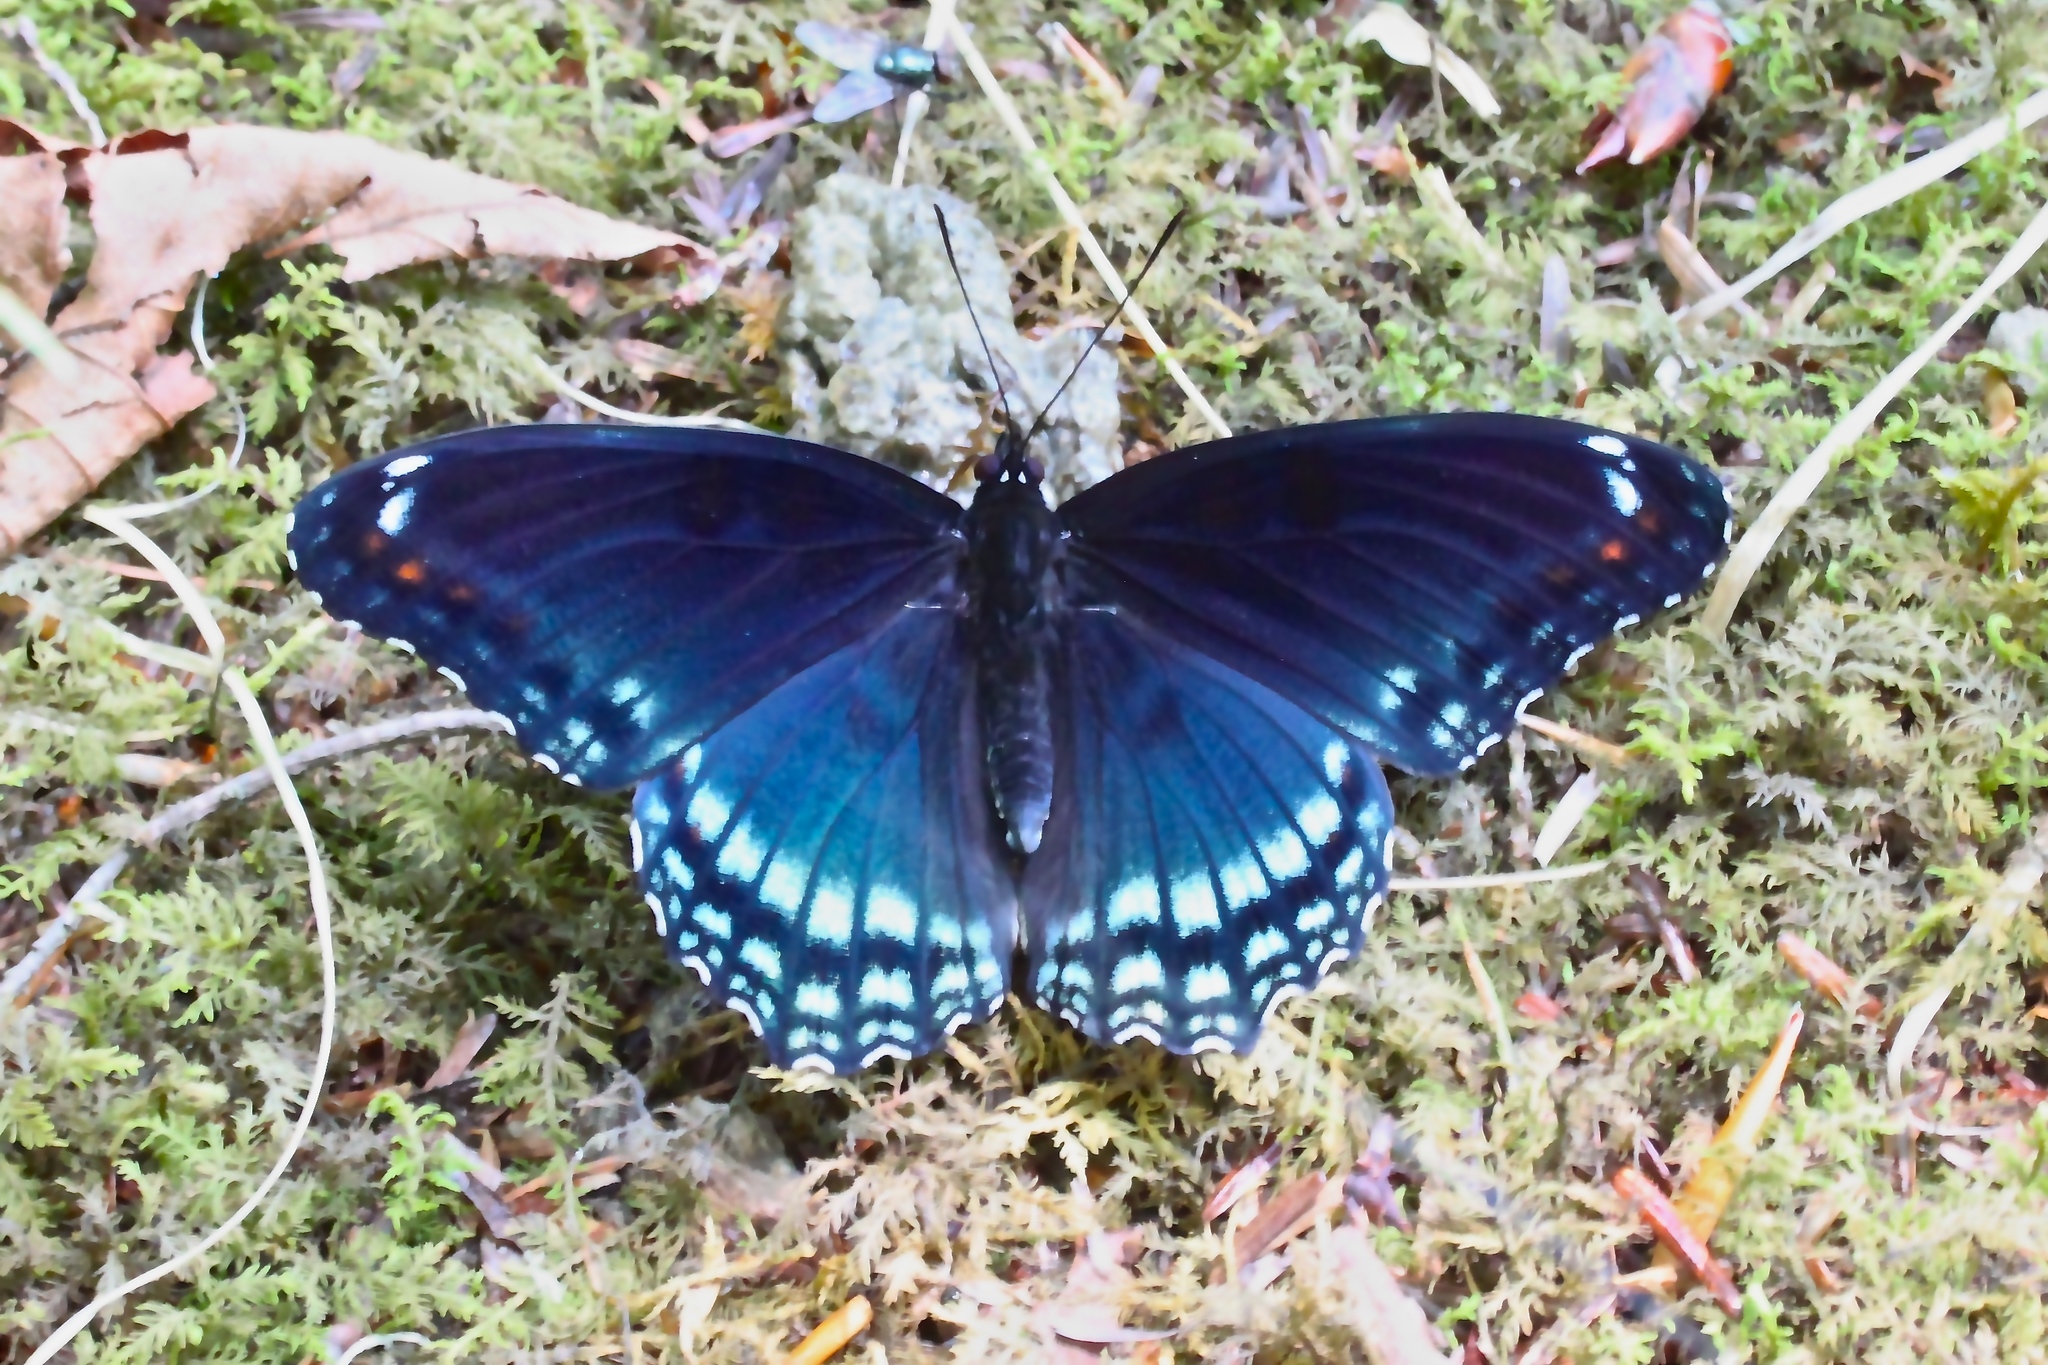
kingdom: Animalia
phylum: Arthropoda
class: Insecta
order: Lepidoptera
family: Nymphalidae
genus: Limenitis
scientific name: Limenitis astyanax
